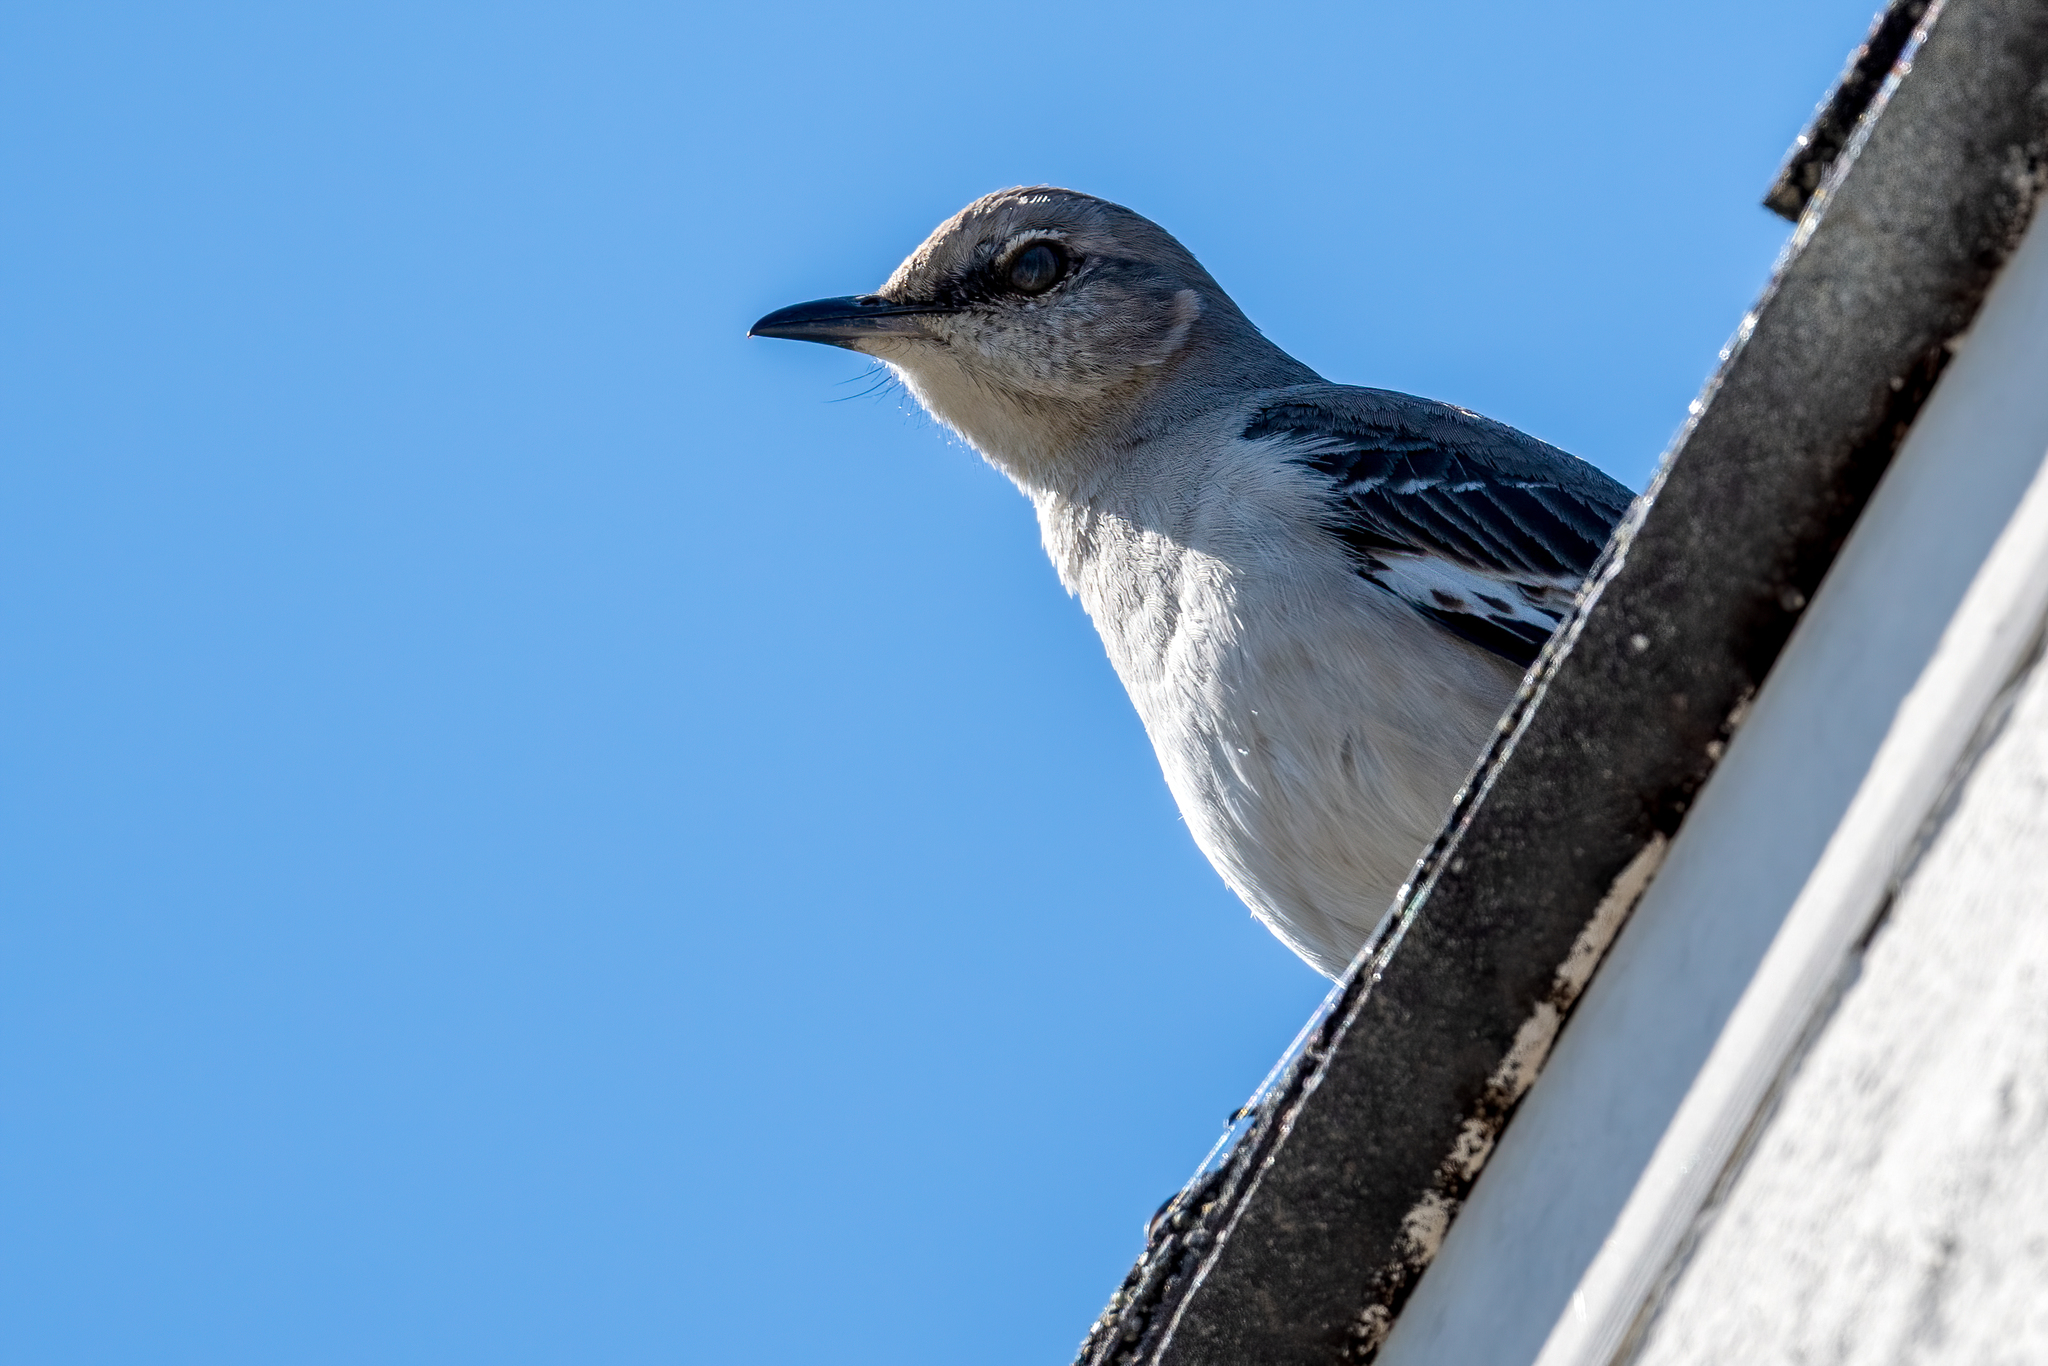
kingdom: Animalia
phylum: Chordata
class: Aves
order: Passeriformes
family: Mimidae
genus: Mimus
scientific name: Mimus polyglottos
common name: Northern mockingbird
